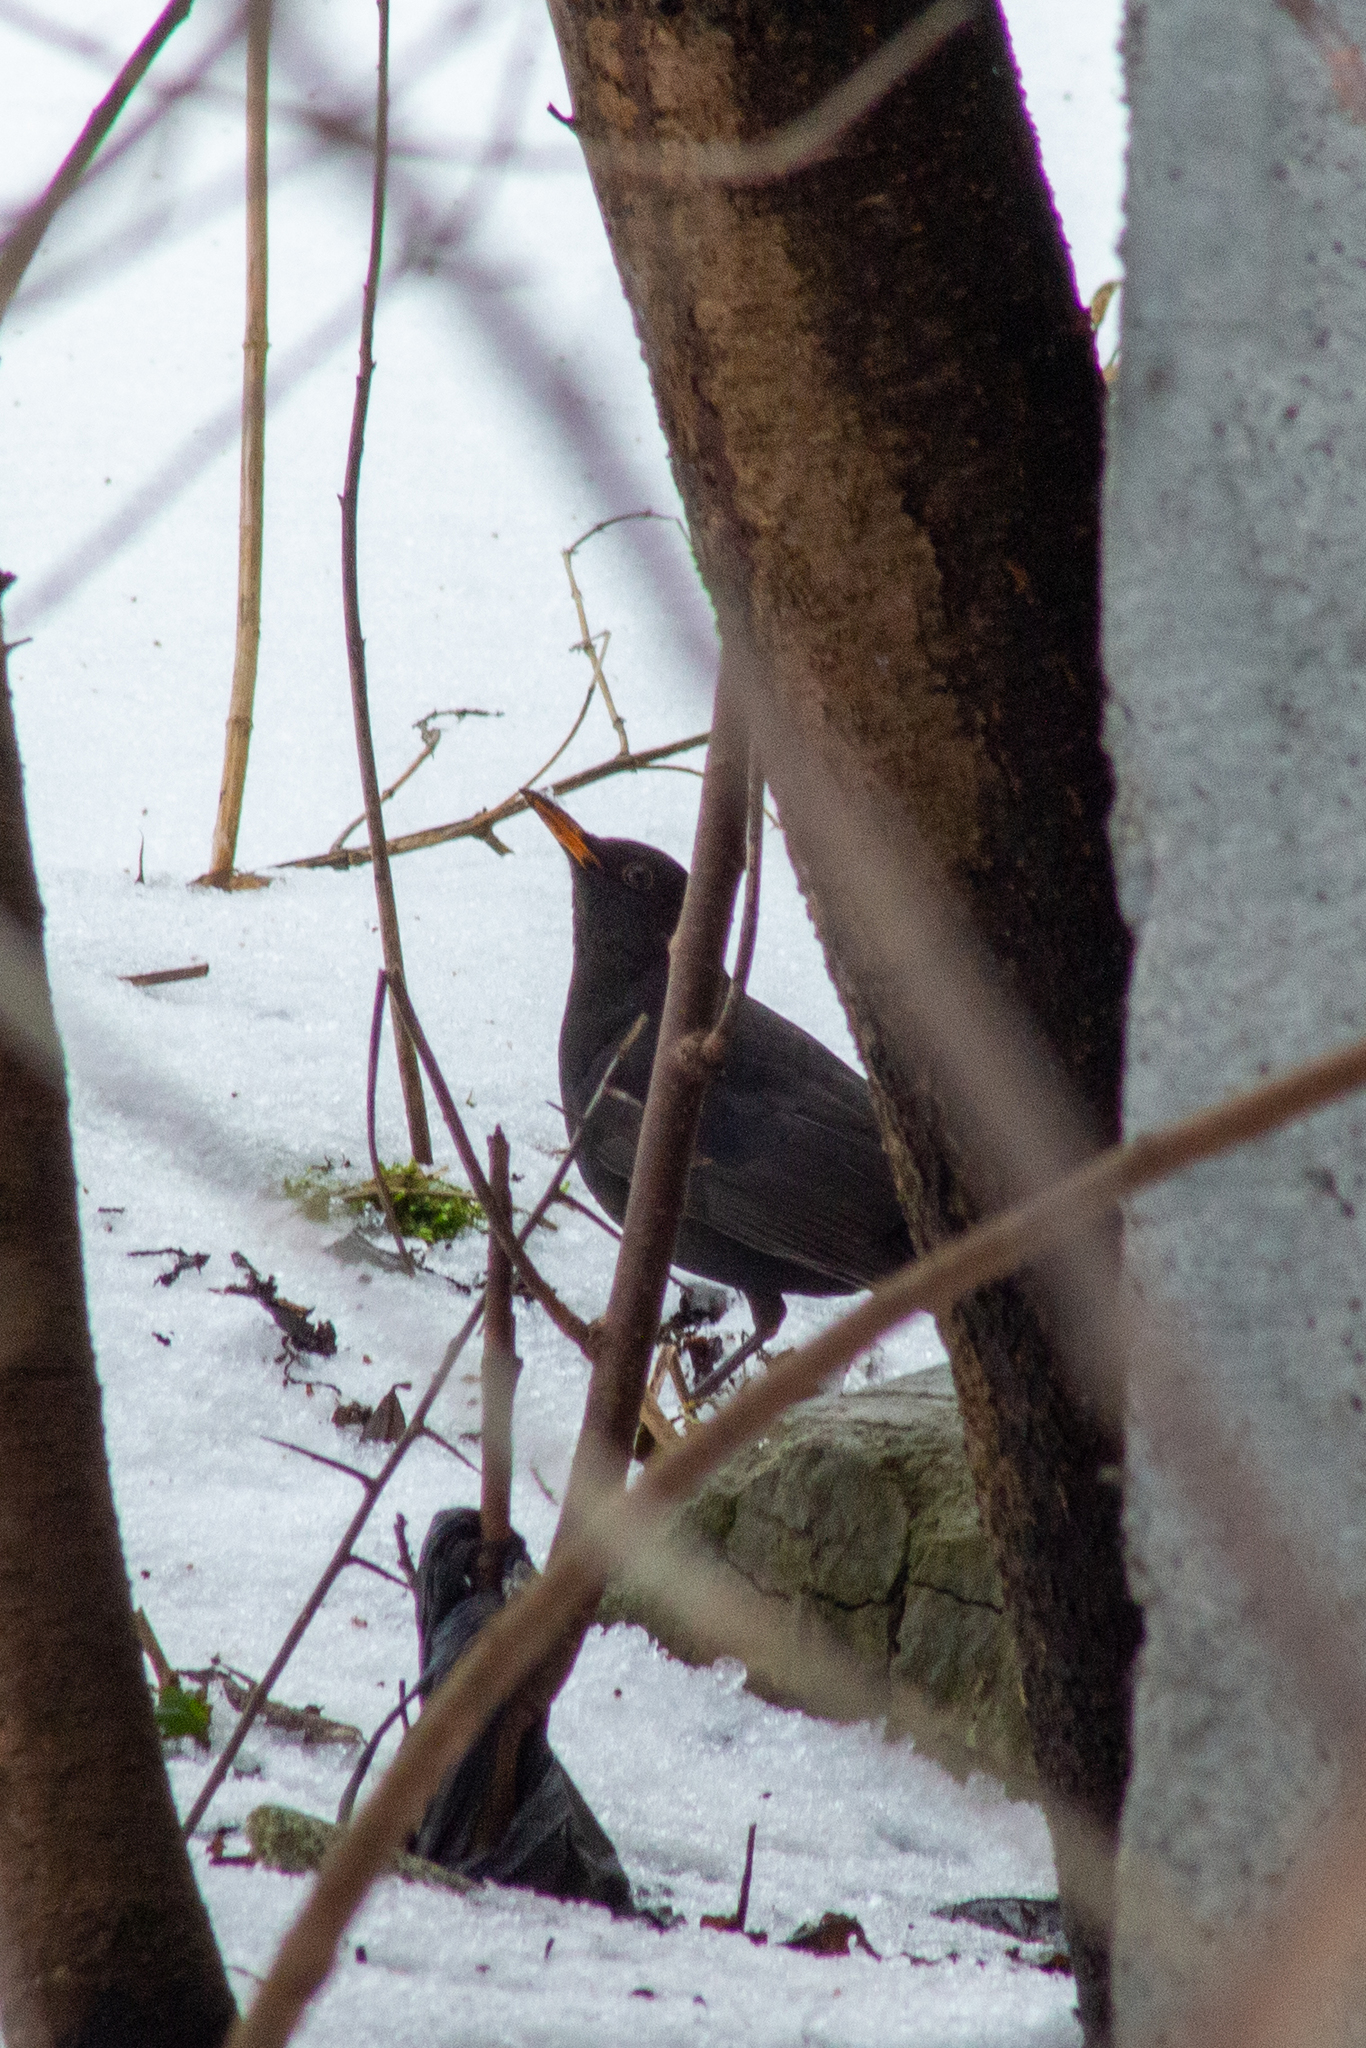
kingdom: Animalia
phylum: Chordata
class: Aves
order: Passeriformes
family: Turdidae
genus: Turdus
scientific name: Turdus merula
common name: Common blackbird
